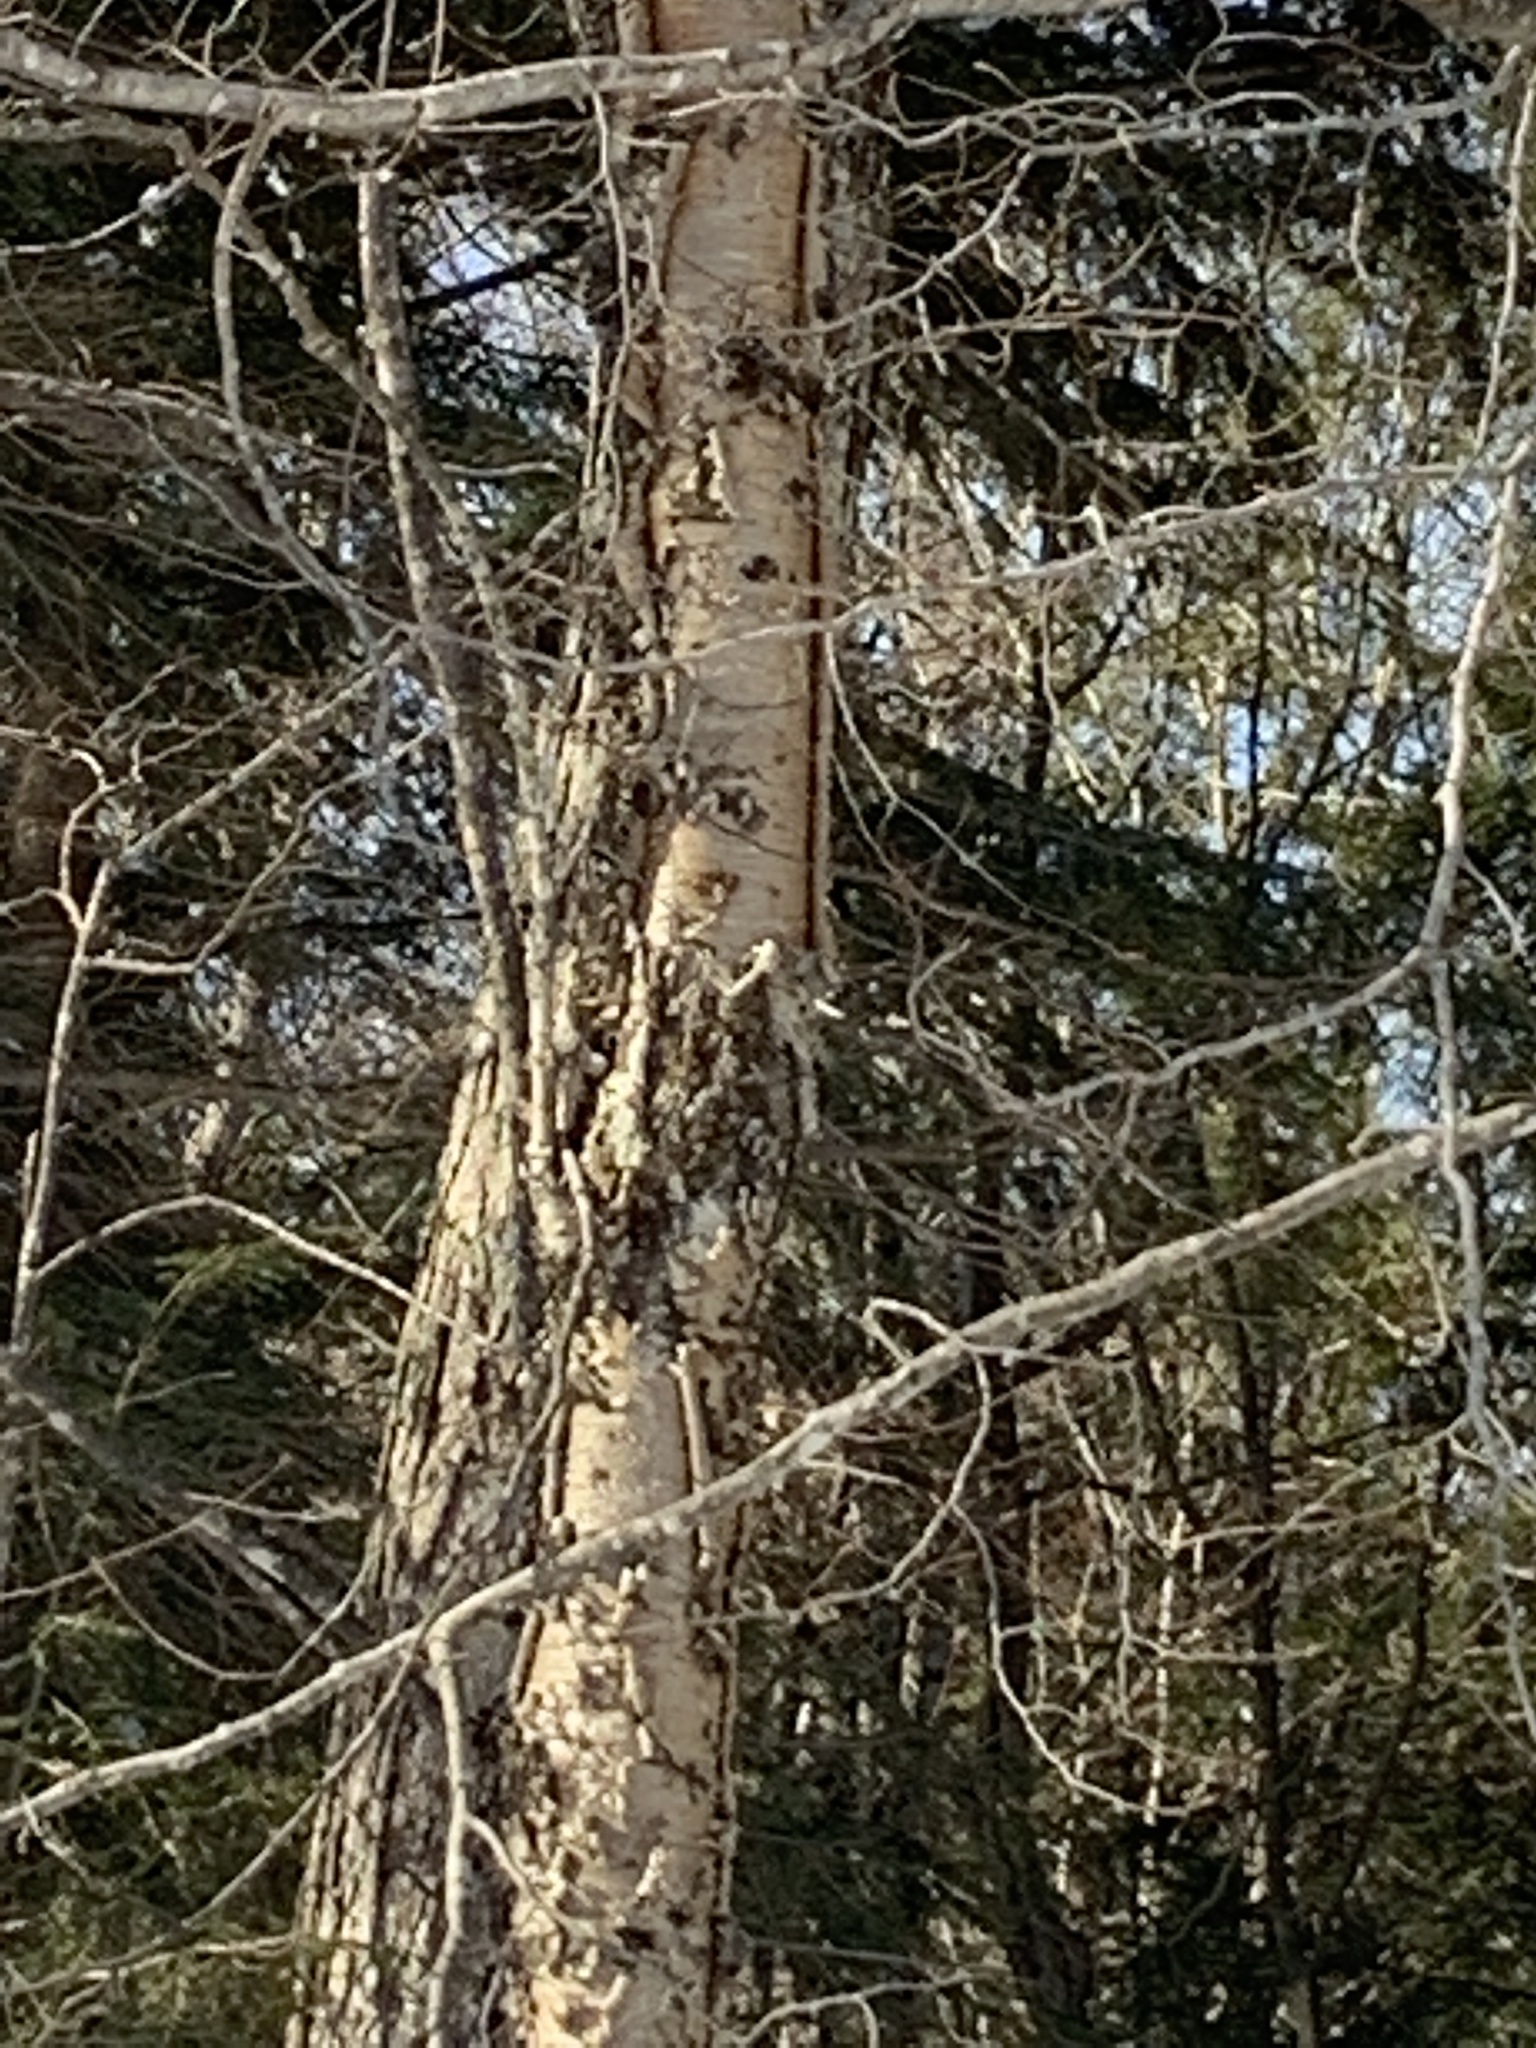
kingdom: Plantae
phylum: Tracheophyta
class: Magnoliopsida
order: Fagales
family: Betulaceae
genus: Betula
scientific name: Betula alleghaniensis
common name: Yellow birch
